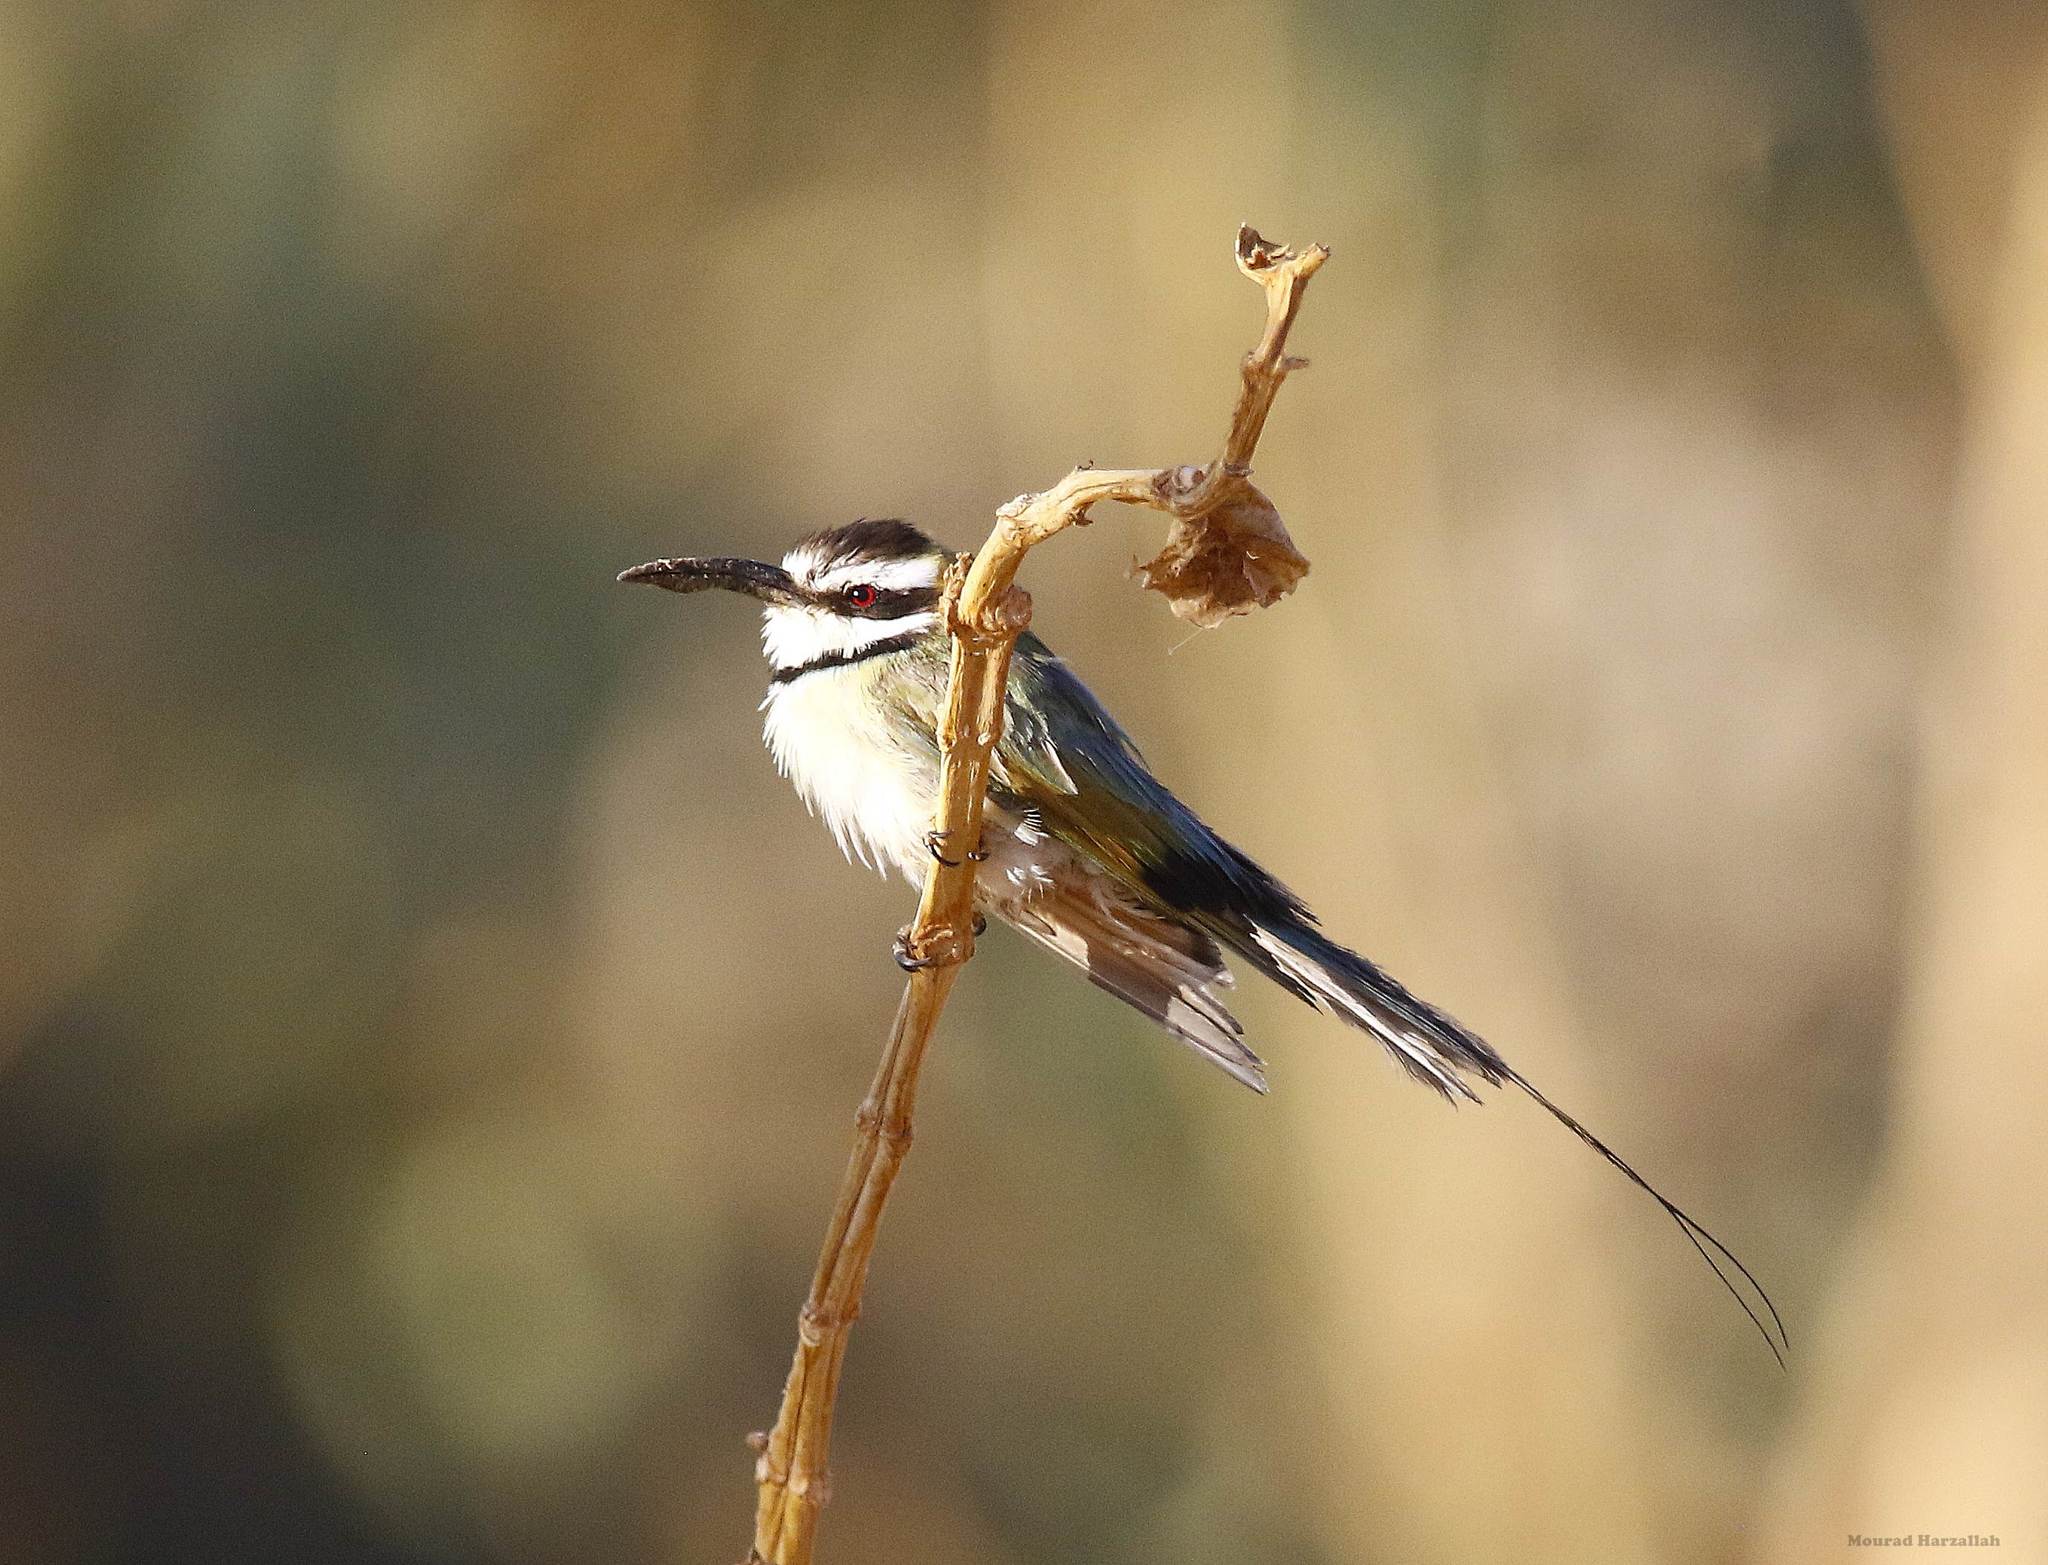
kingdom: Animalia
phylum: Chordata
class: Aves
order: Coraciiformes
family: Meropidae
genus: Merops
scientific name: Merops albicollis
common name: White-throated bee-eater
